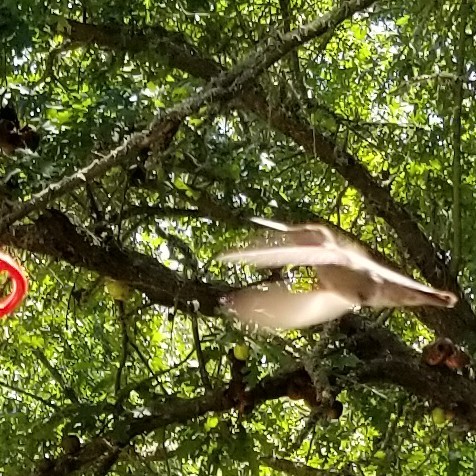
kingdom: Animalia
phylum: Chordata
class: Aves
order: Apodiformes
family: Trochilidae
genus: Calypte
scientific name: Calypte anna
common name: Anna's hummingbird
